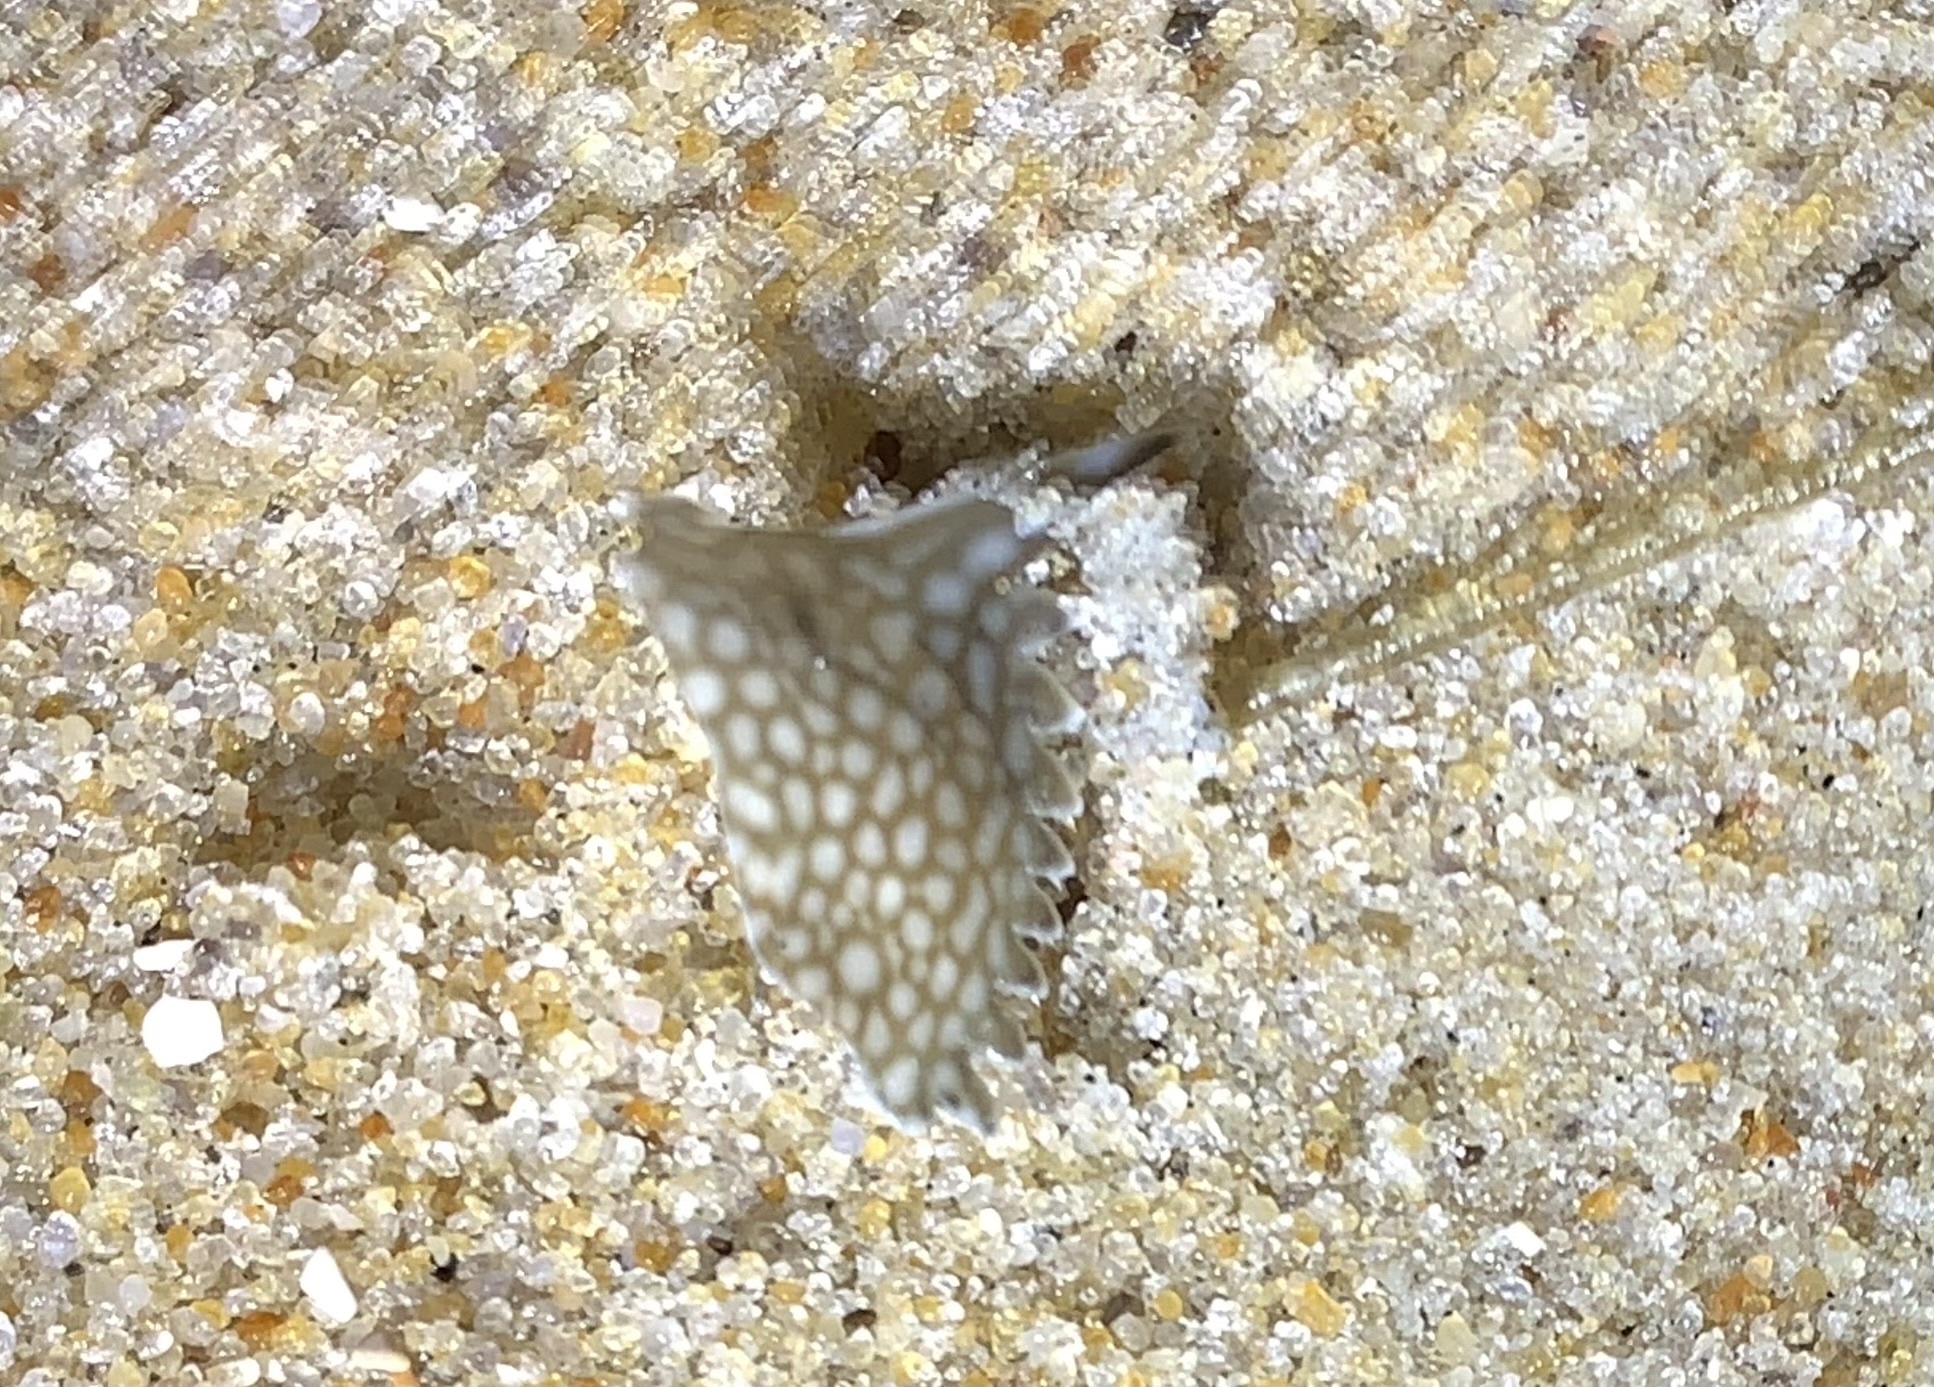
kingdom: Animalia
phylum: Arthropoda
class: Malacostraca
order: Decapoda
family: Portunidae
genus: Arenaeus
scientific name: Arenaeus cribrarius
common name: Speckled crab
